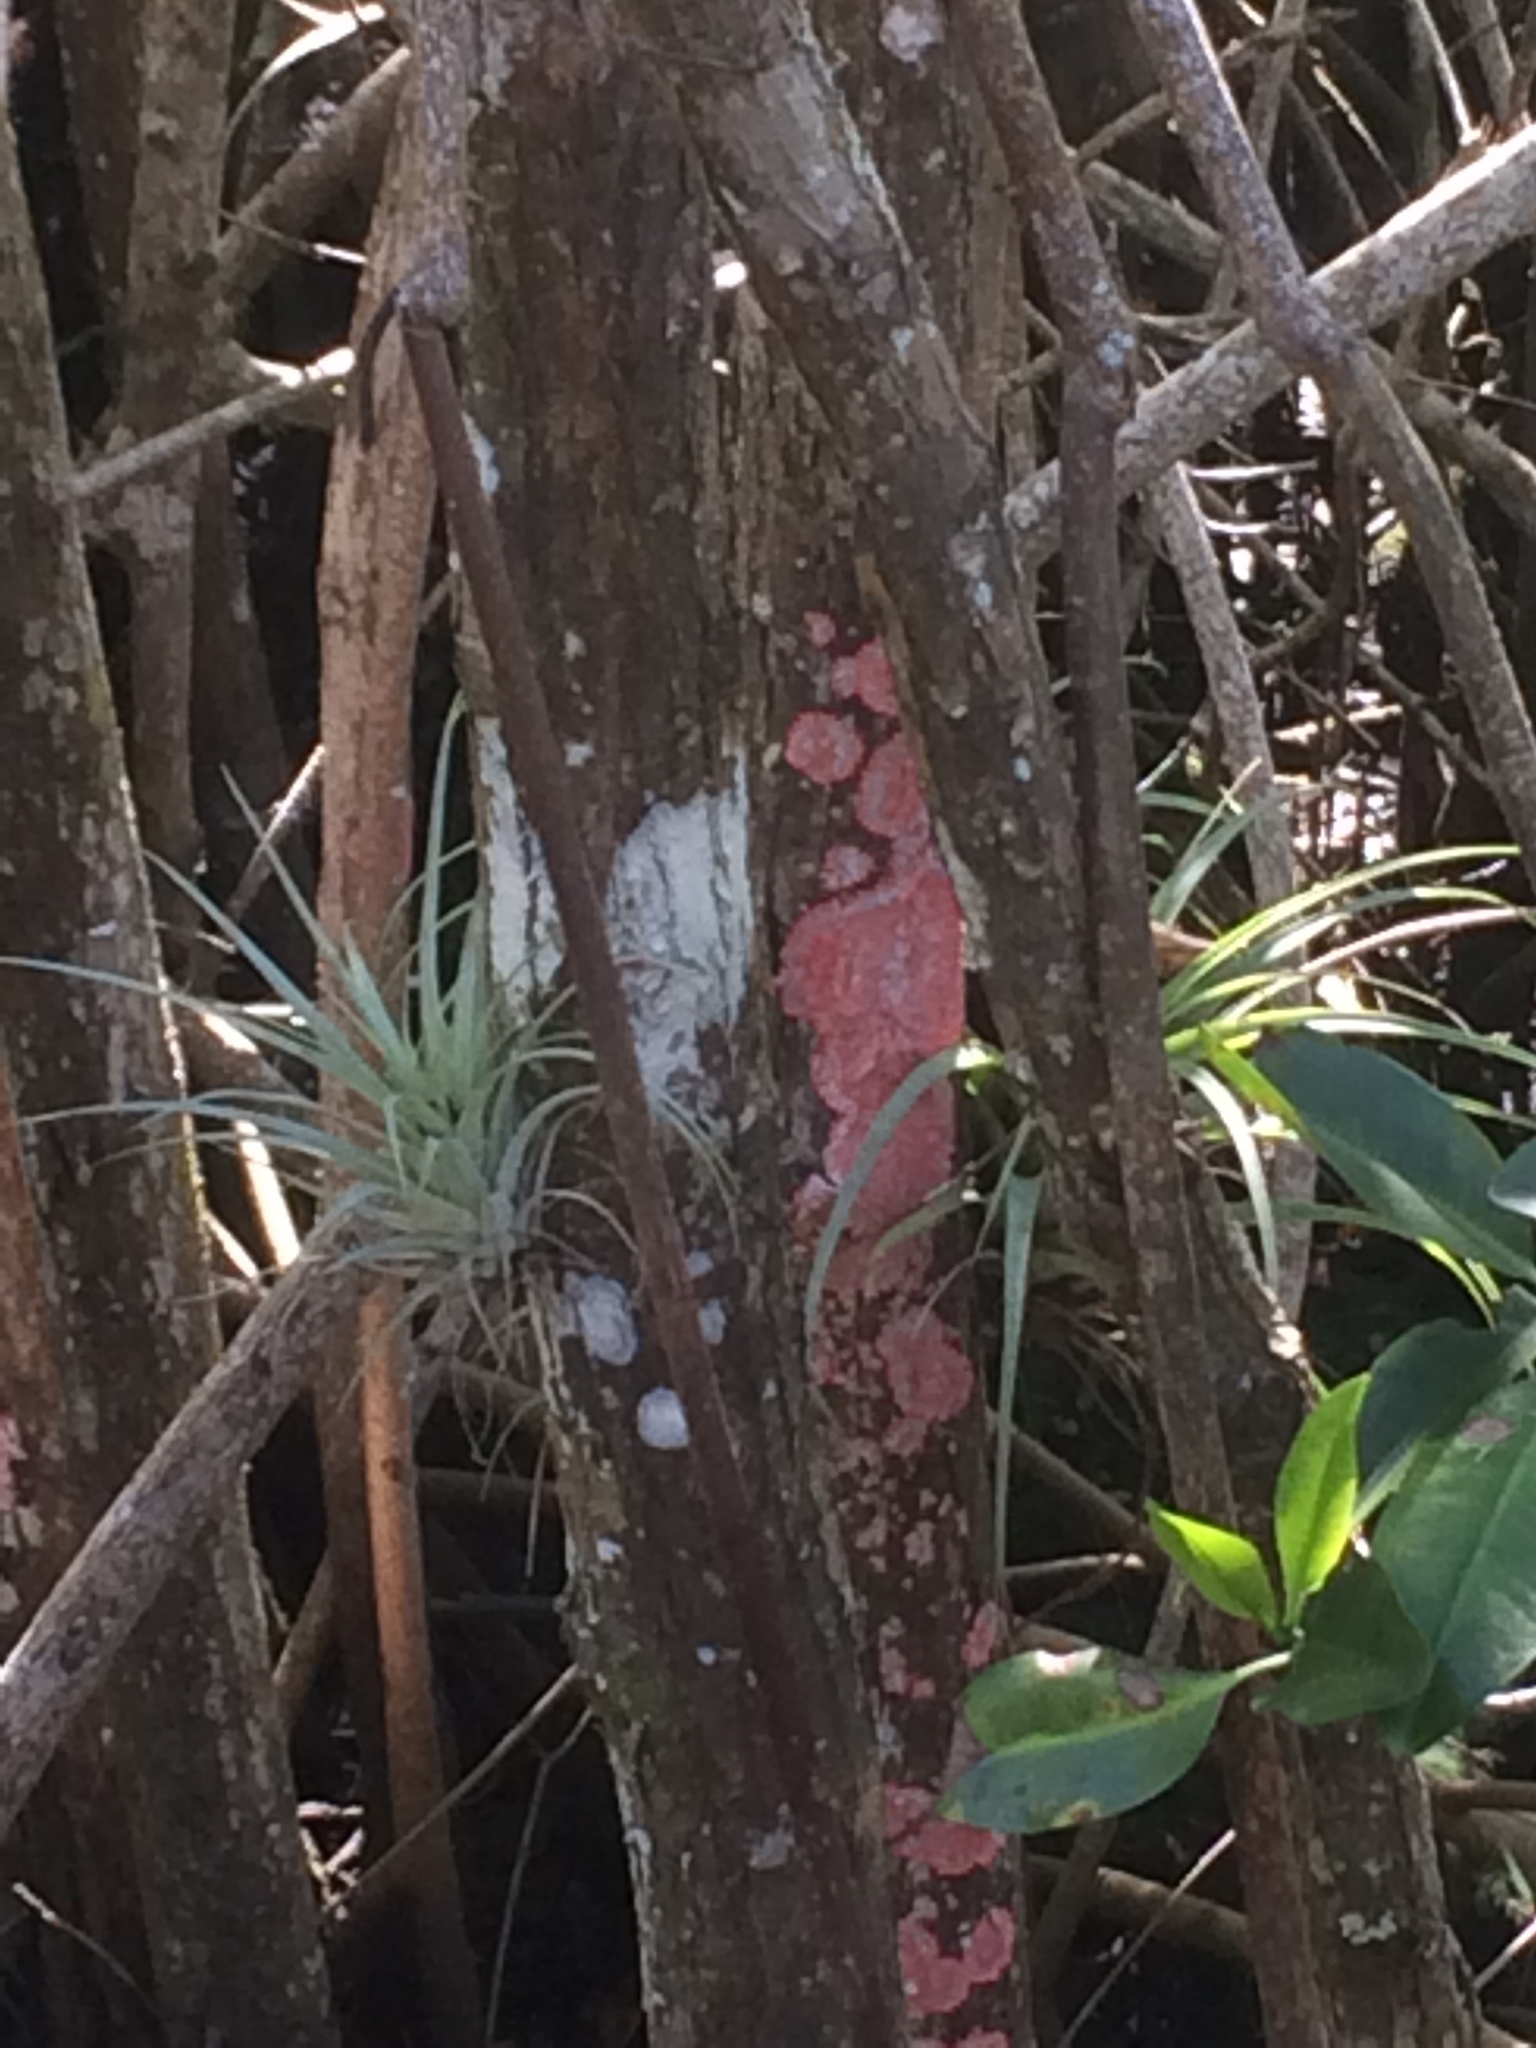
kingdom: Fungi
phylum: Ascomycota
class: Arthoniomycetes
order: Arthoniales
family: Arthoniaceae
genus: Herpothallon
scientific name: Herpothallon rubrocinctum
